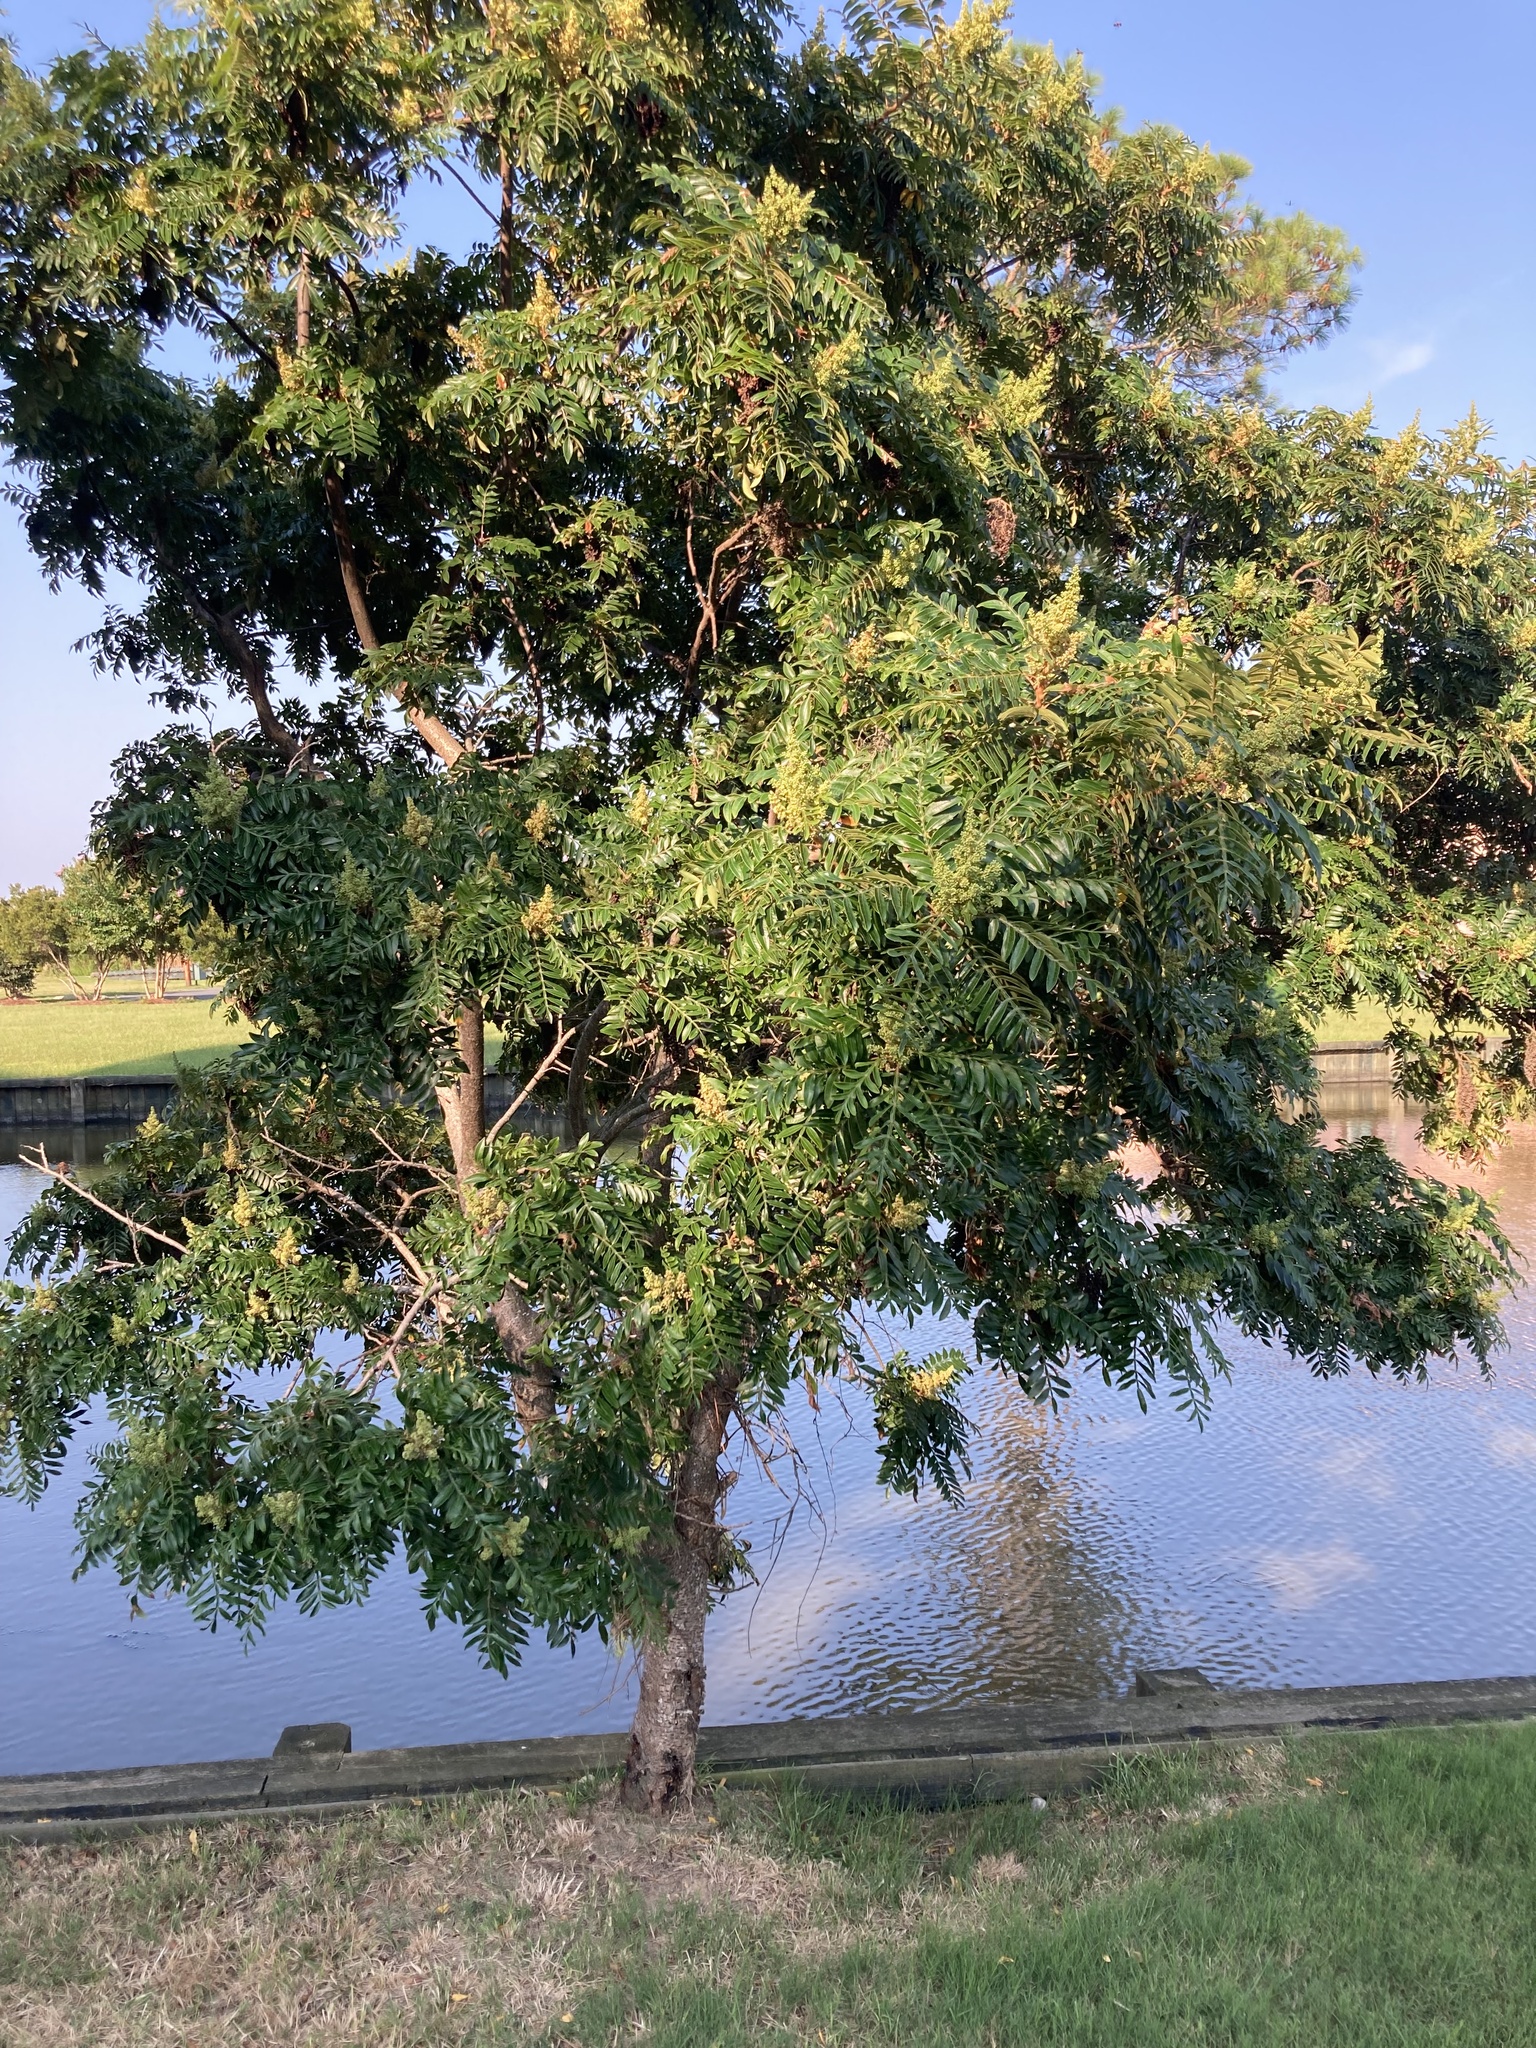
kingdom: Plantae
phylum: Tracheophyta
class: Magnoliopsida
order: Sapindales
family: Anacardiaceae
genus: Rhus
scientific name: Rhus copallina
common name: Shining sumac
